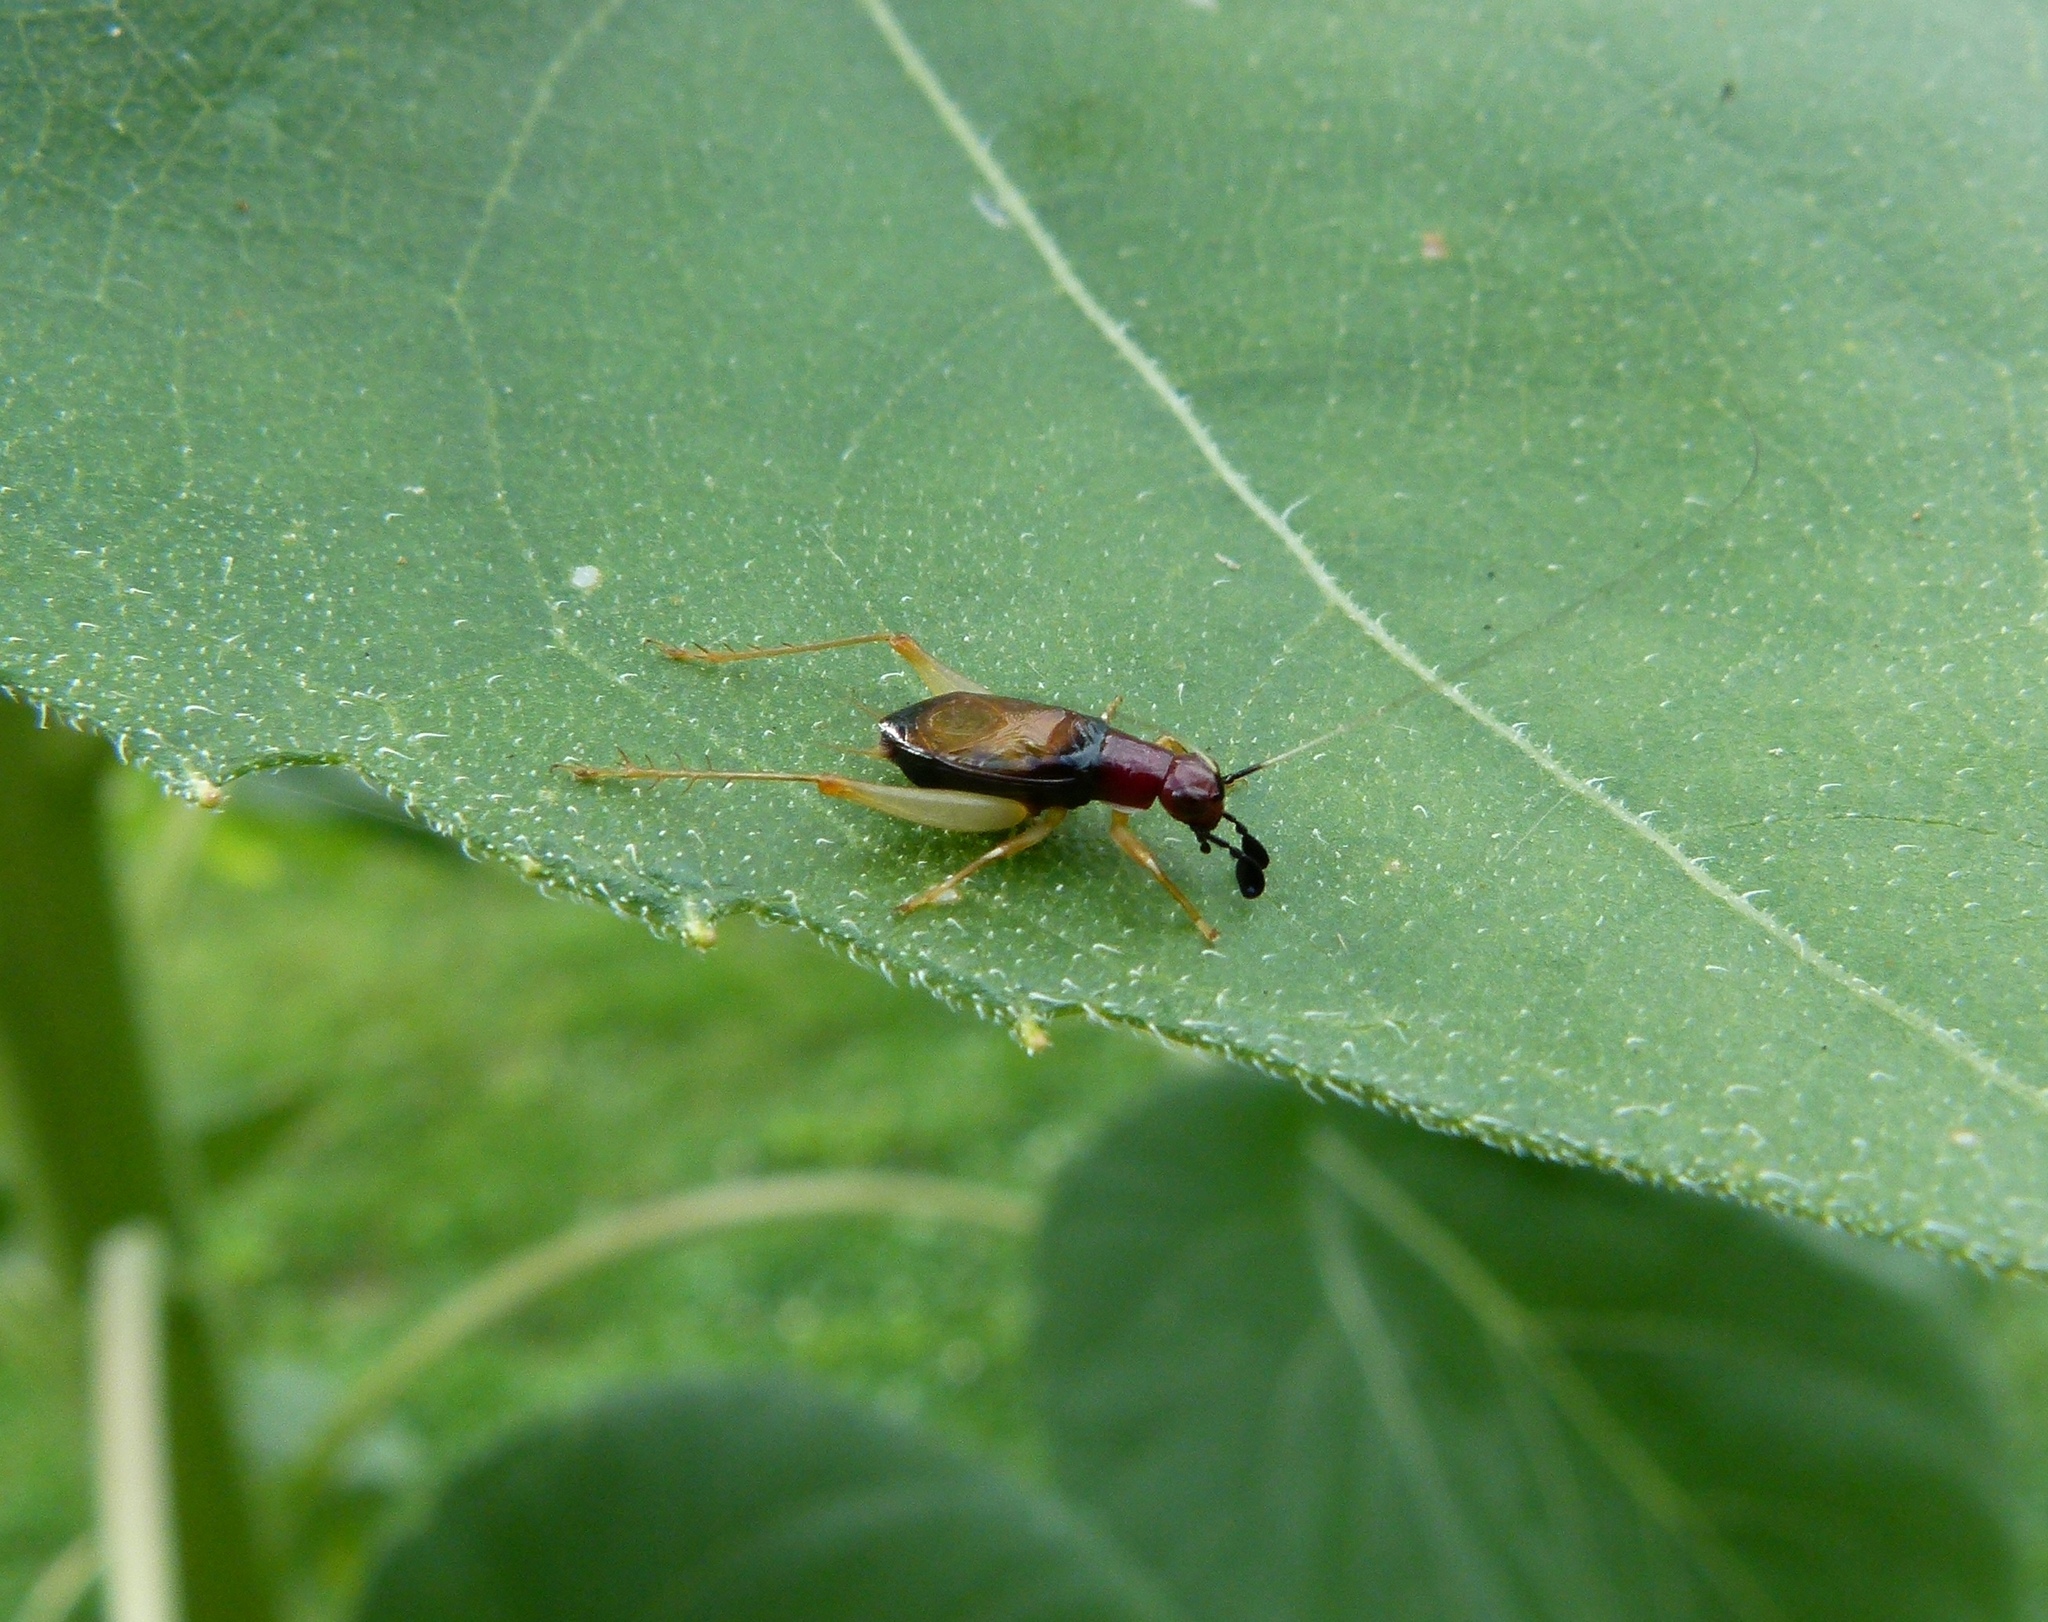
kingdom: Animalia
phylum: Arthropoda
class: Insecta
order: Orthoptera
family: Trigonidiidae
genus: Phyllopalpus
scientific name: Phyllopalpus pulchellus
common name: Handsome trig
